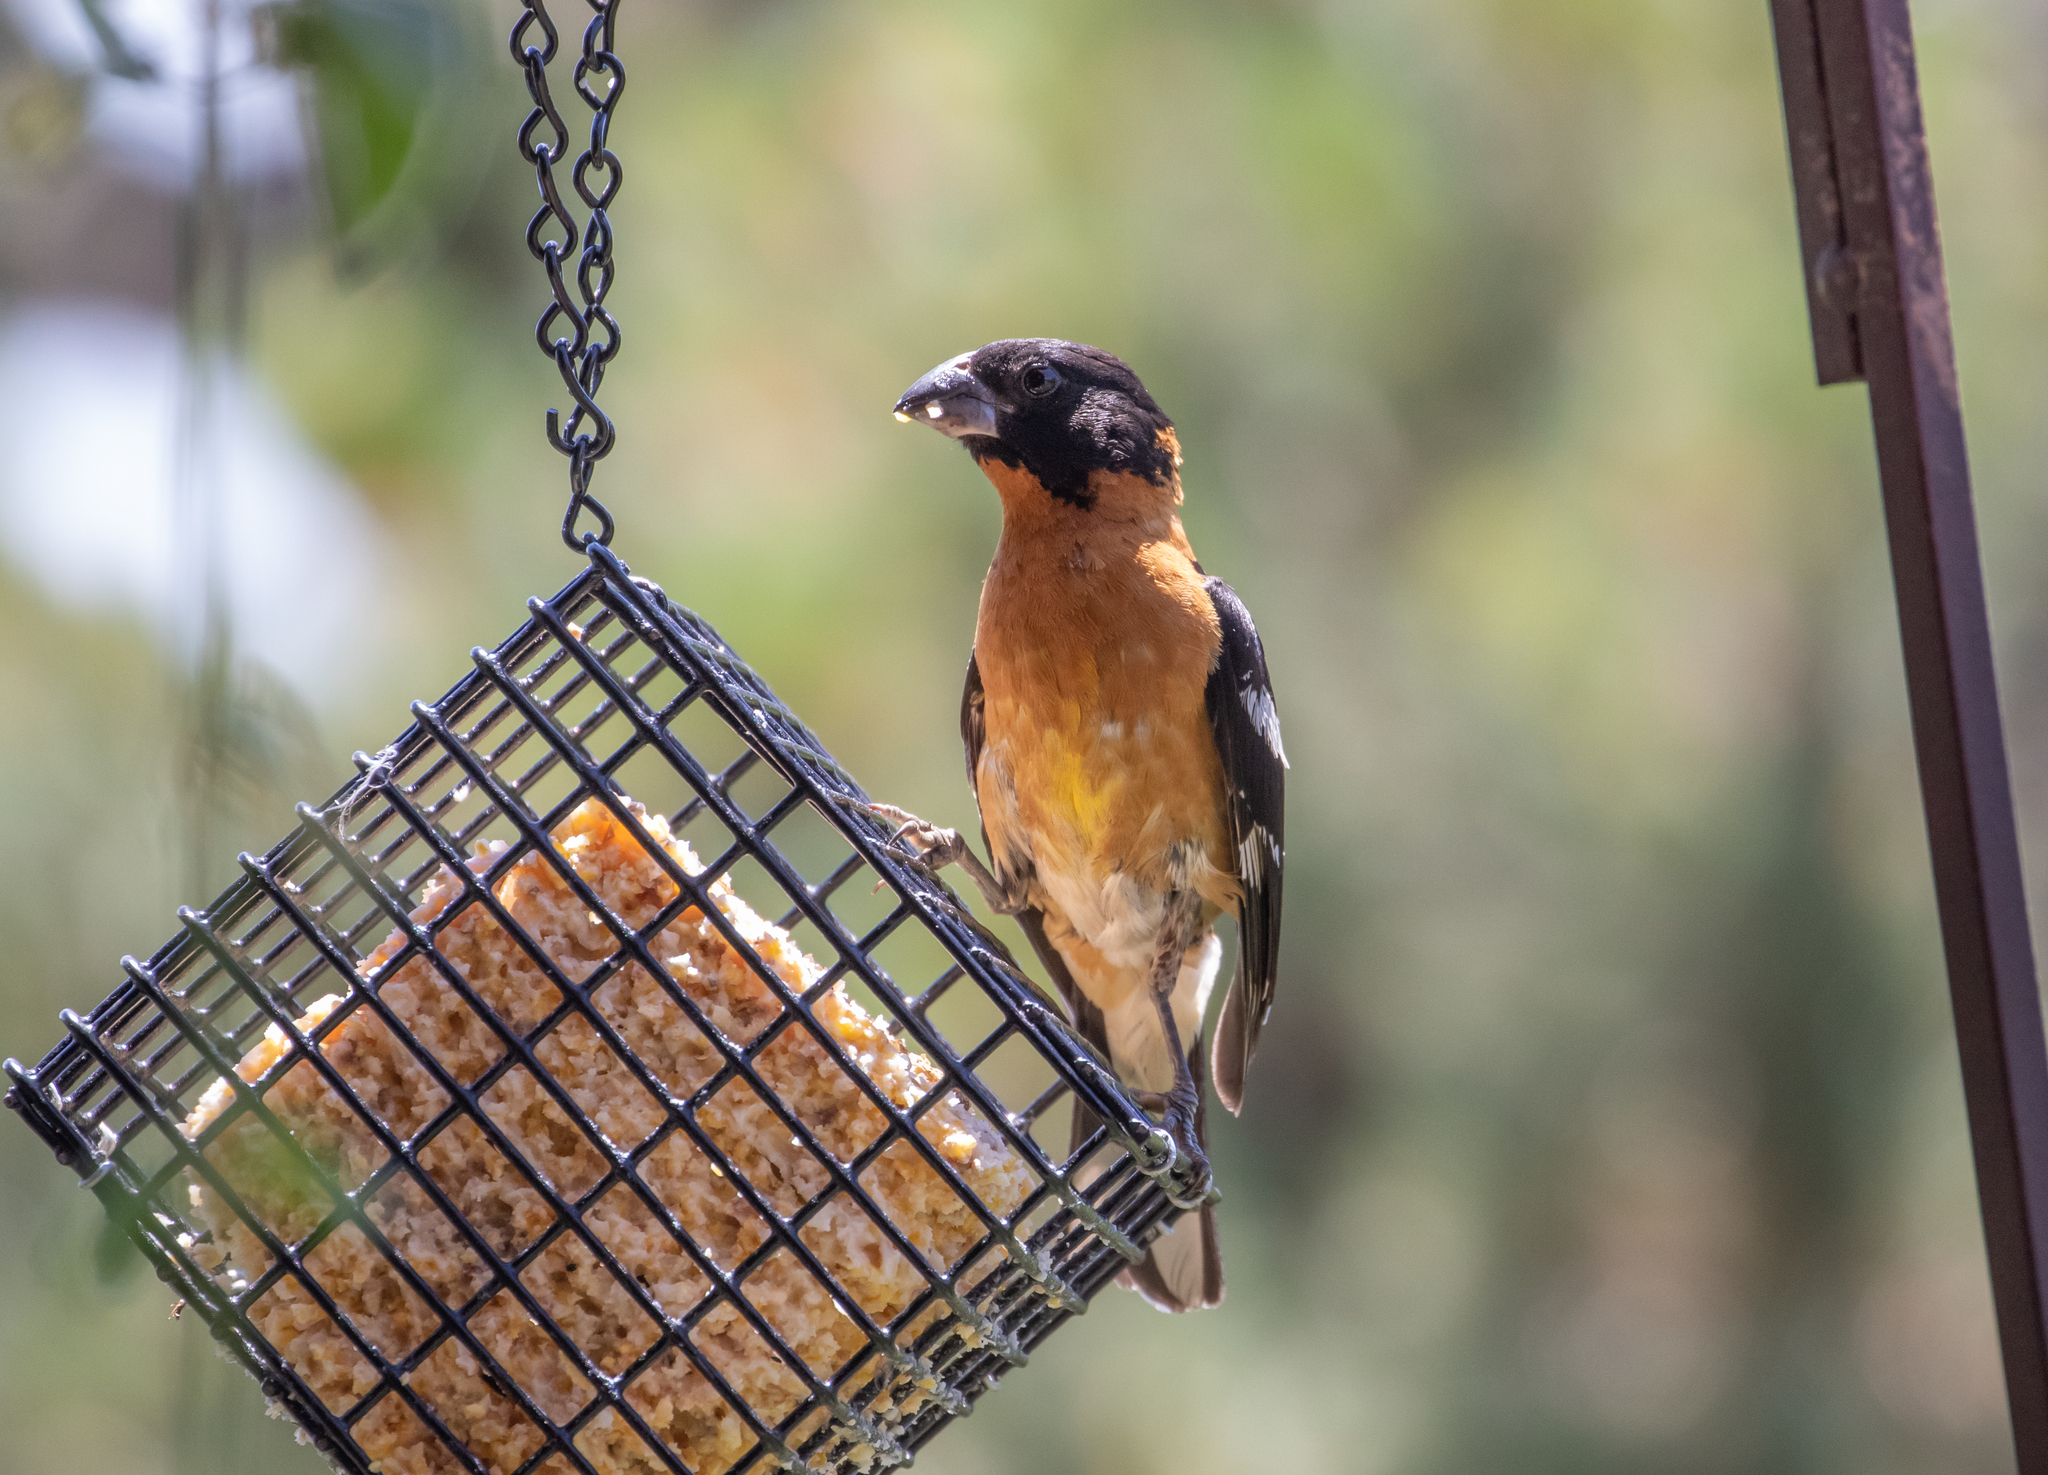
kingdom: Animalia
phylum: Chordata
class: Aves
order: Passeriformes
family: Cardinalidae
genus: Pheucticus
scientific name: Pheucticus melanocephalus
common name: Black-headed grosbeak
